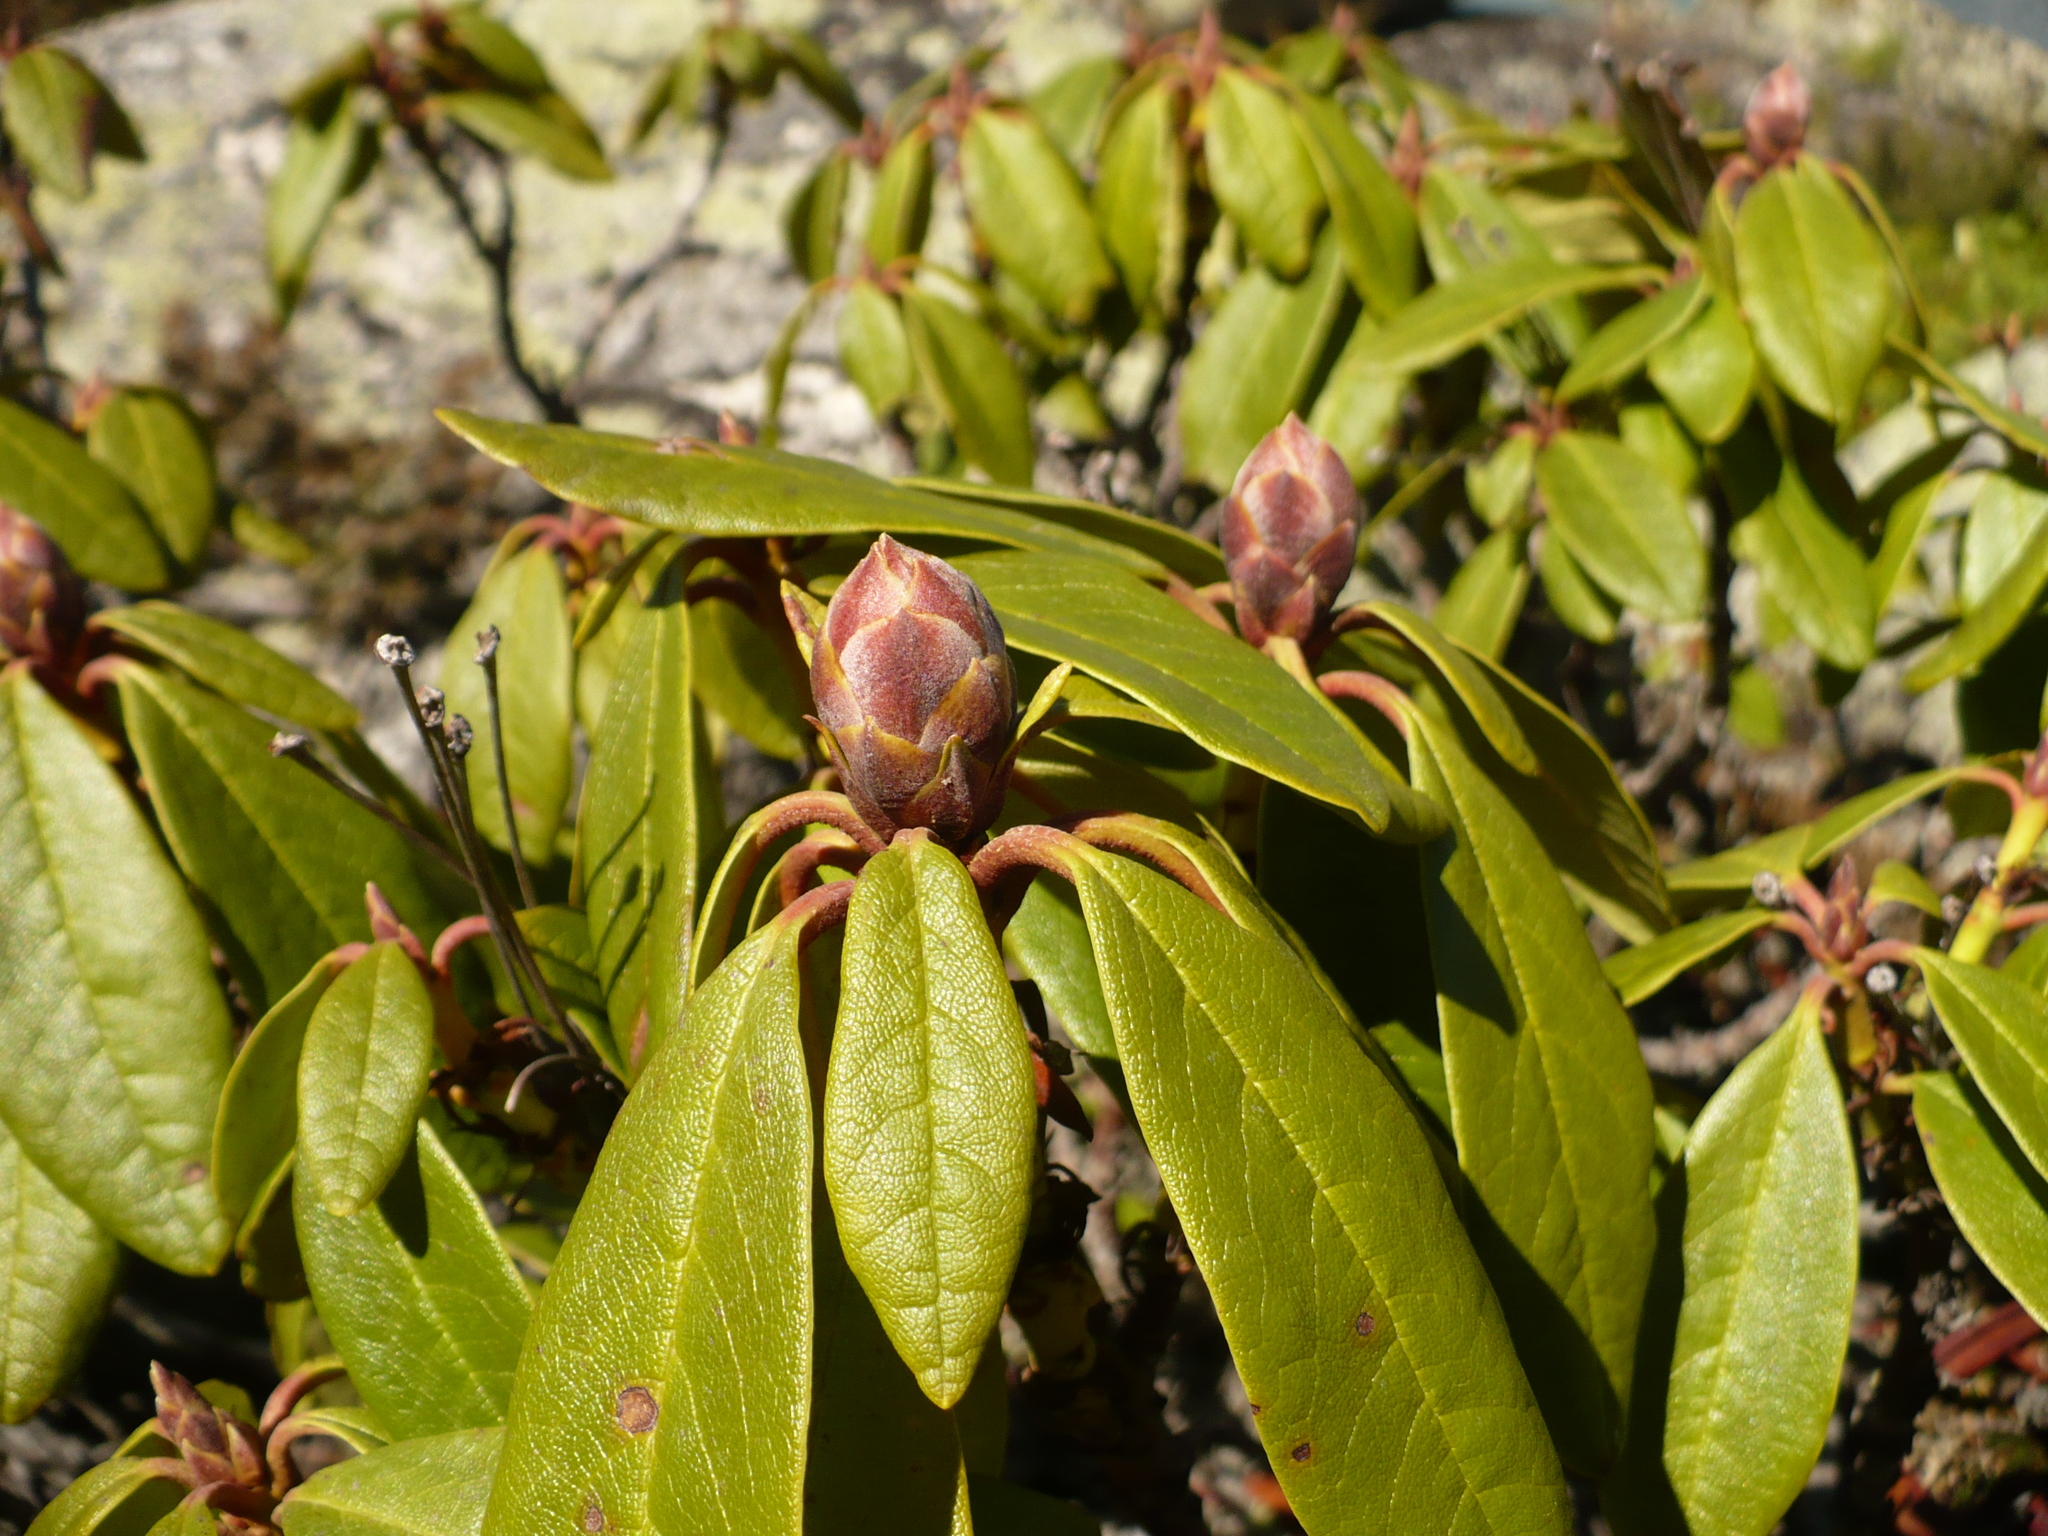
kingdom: Plantae
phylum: Tracheophyta
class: Magnoliopsida
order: Ericales
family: Ericaceae
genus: Rhododendron
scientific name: Rhododendron aureum
